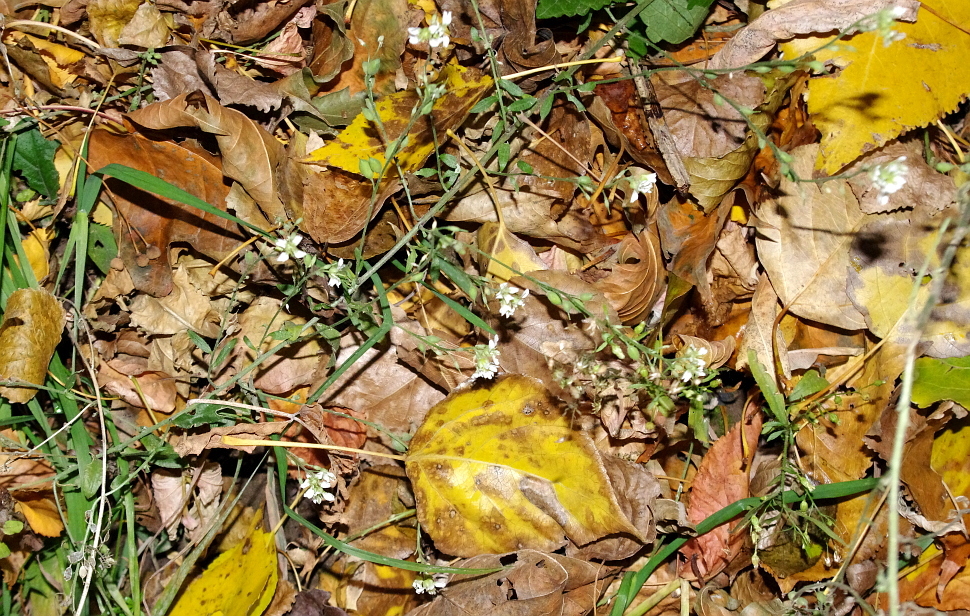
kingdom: Plantae
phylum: Tracheophyta
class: Magnoliopsida
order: Brassicales
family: Brassicaceae
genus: Berteroa
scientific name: Berteroa incana
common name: Hoary alison
